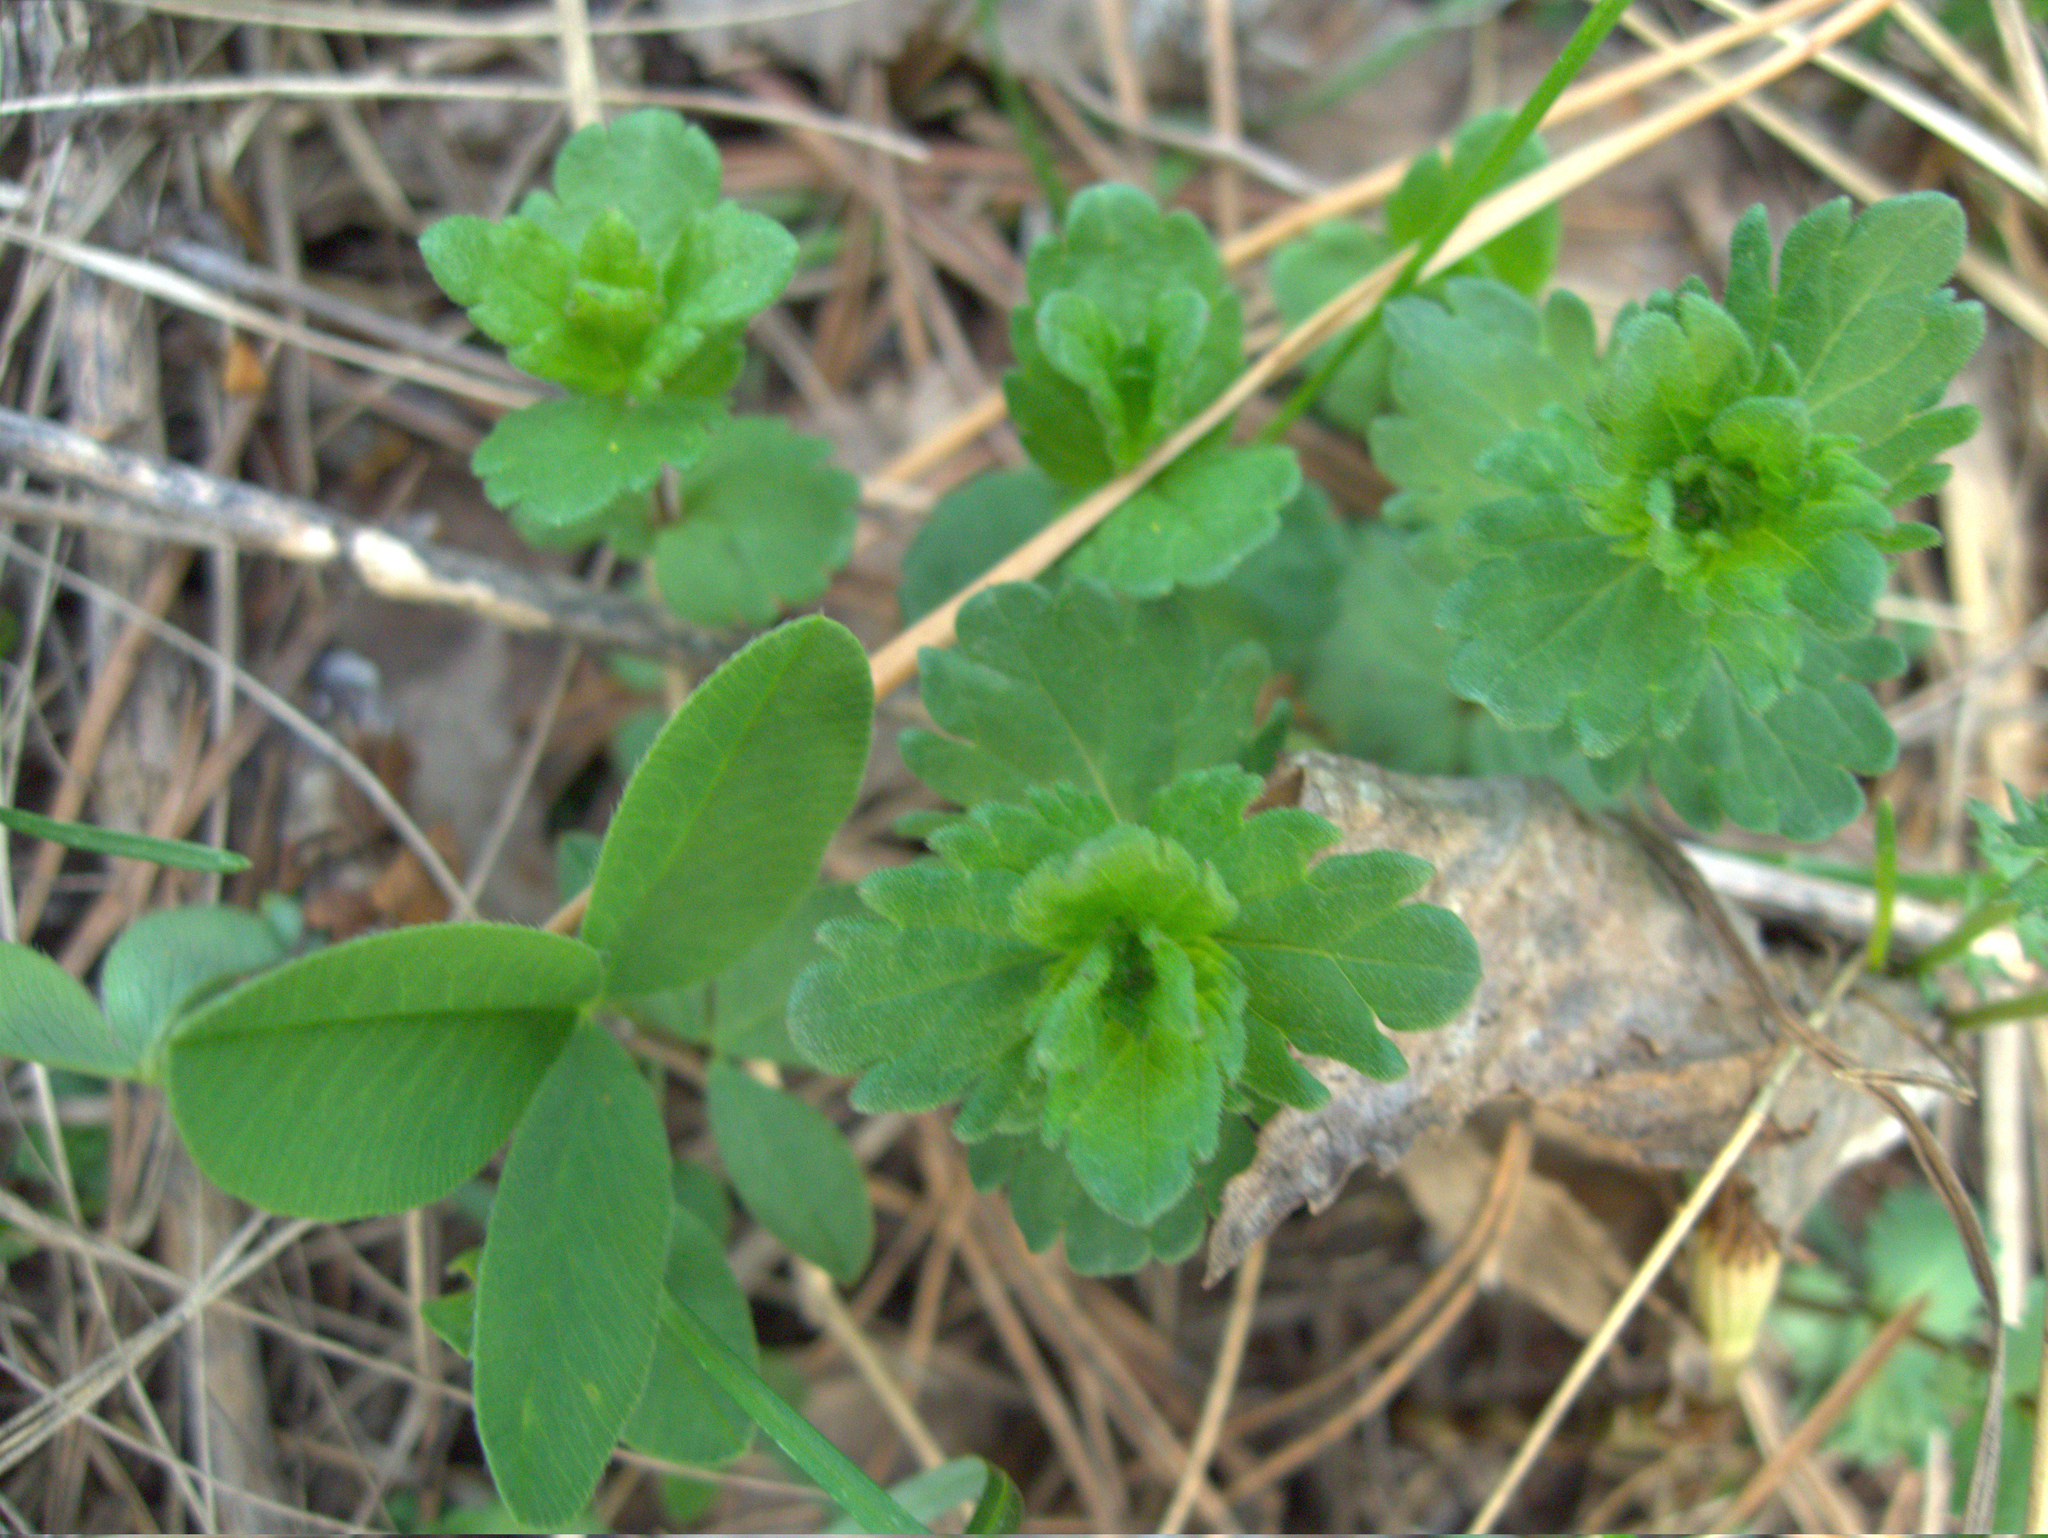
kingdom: Plantae
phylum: Tracheophyta
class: Magnoliopsida
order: Lamiales
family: Plantaginaceae
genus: Veronica
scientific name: Veronica chamaedrys
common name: Germander speedwell
